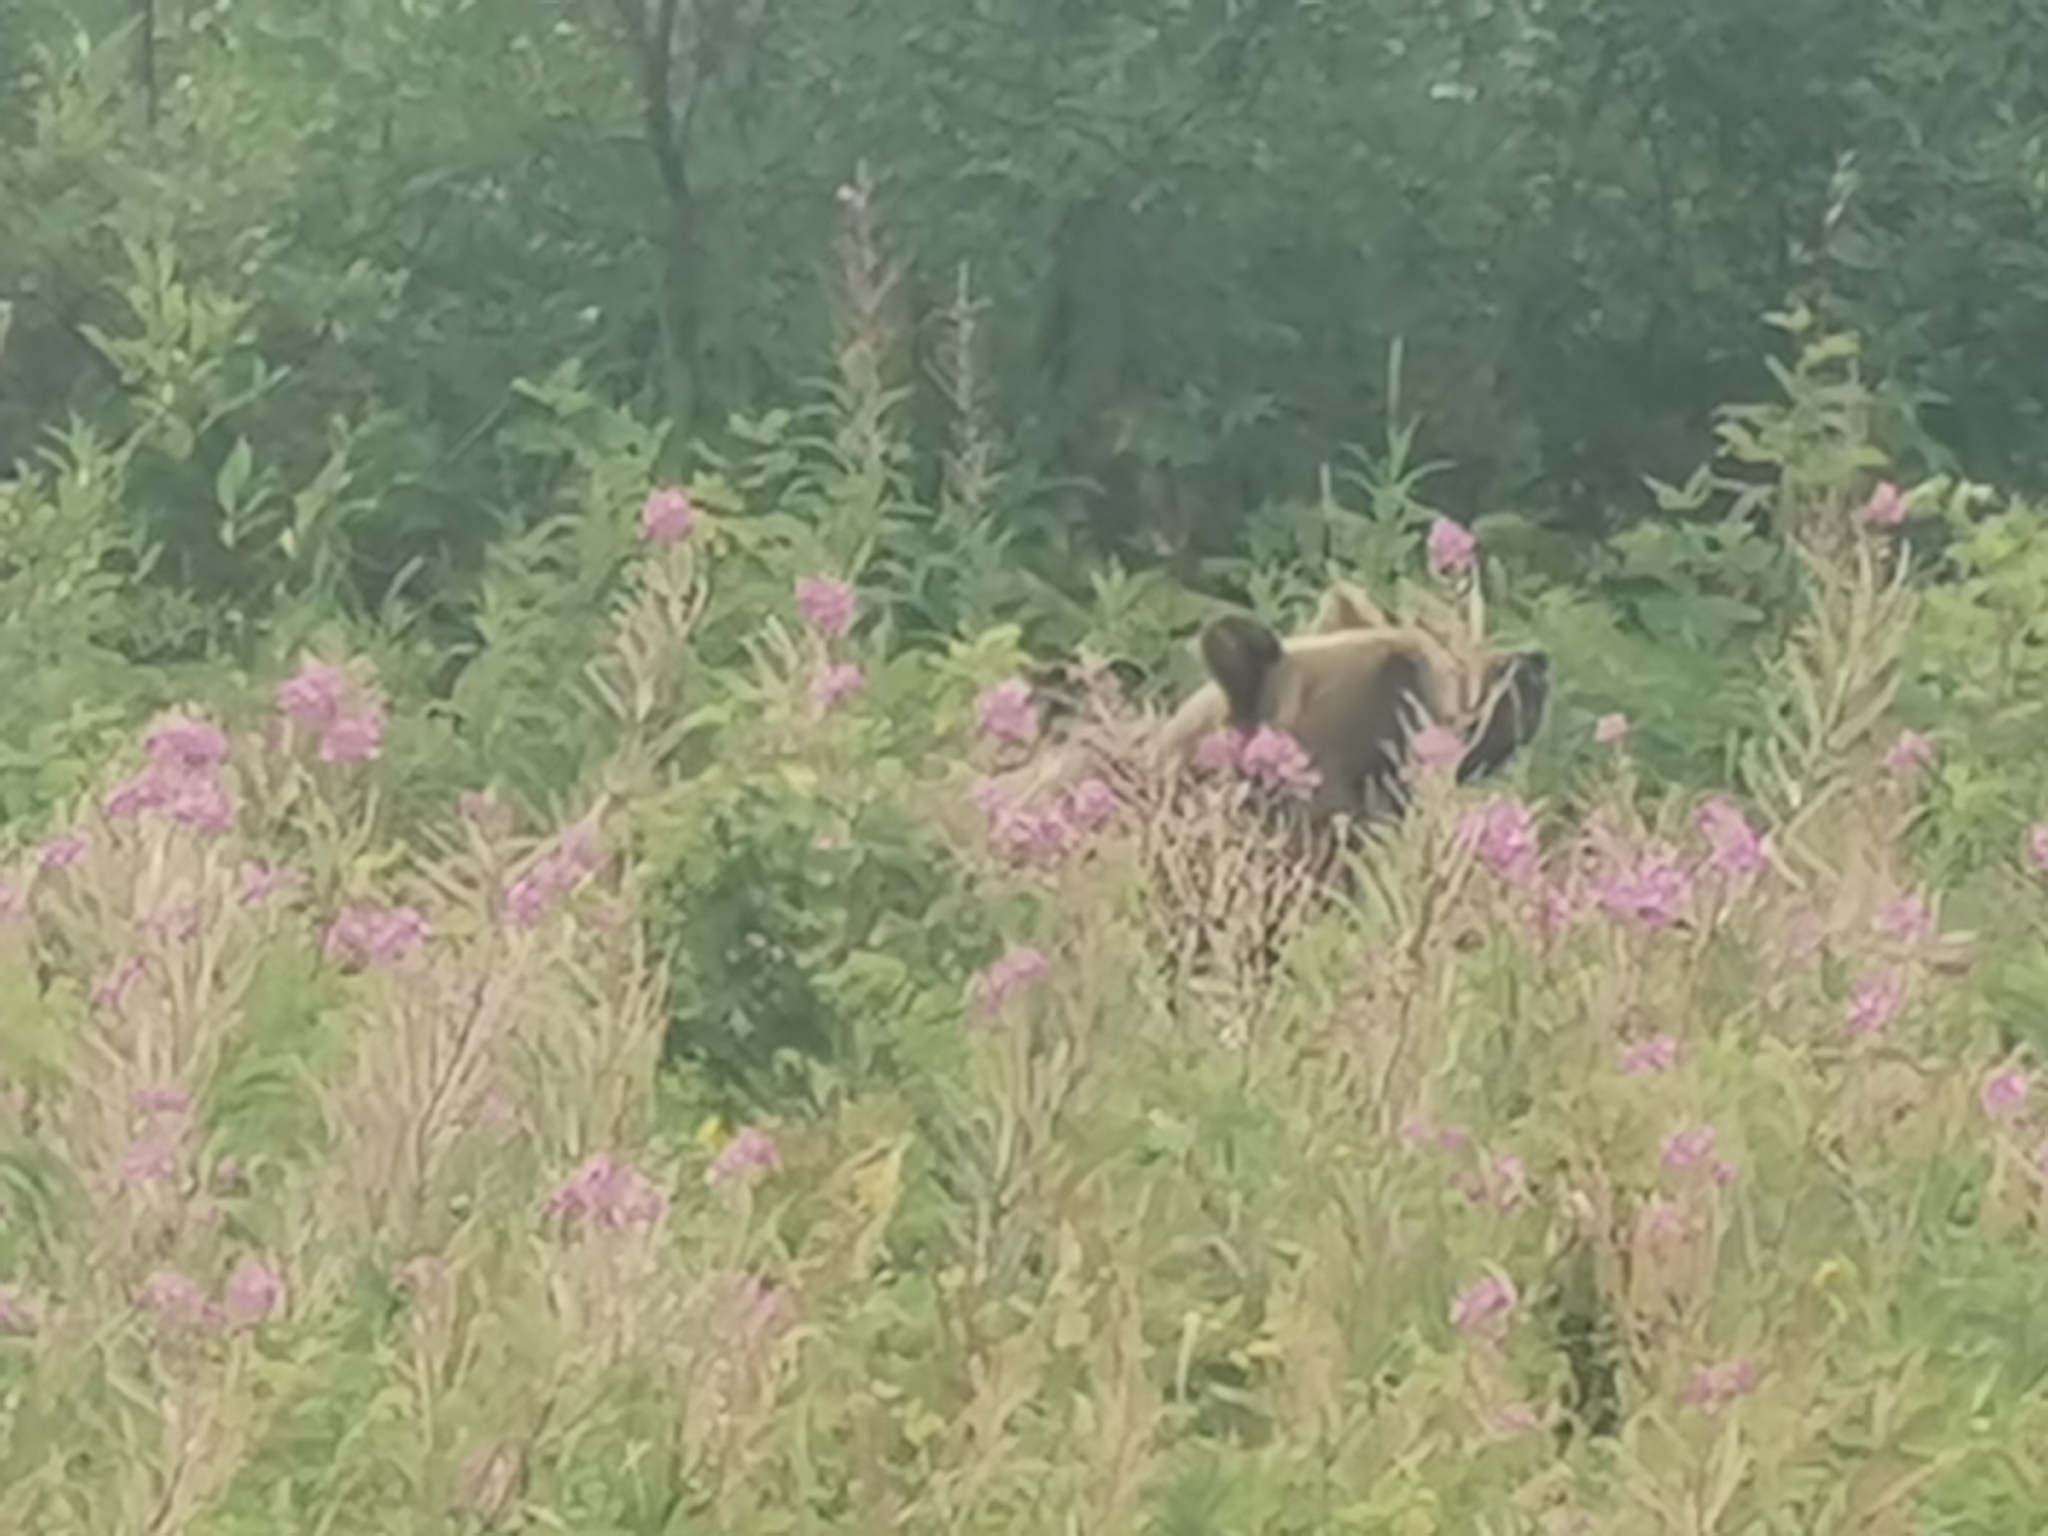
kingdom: Animalia
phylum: Chordata
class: Mammalia
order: Carnivora
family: Ursidae
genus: Ursus
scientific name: Ursus arctos
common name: Brown bear
